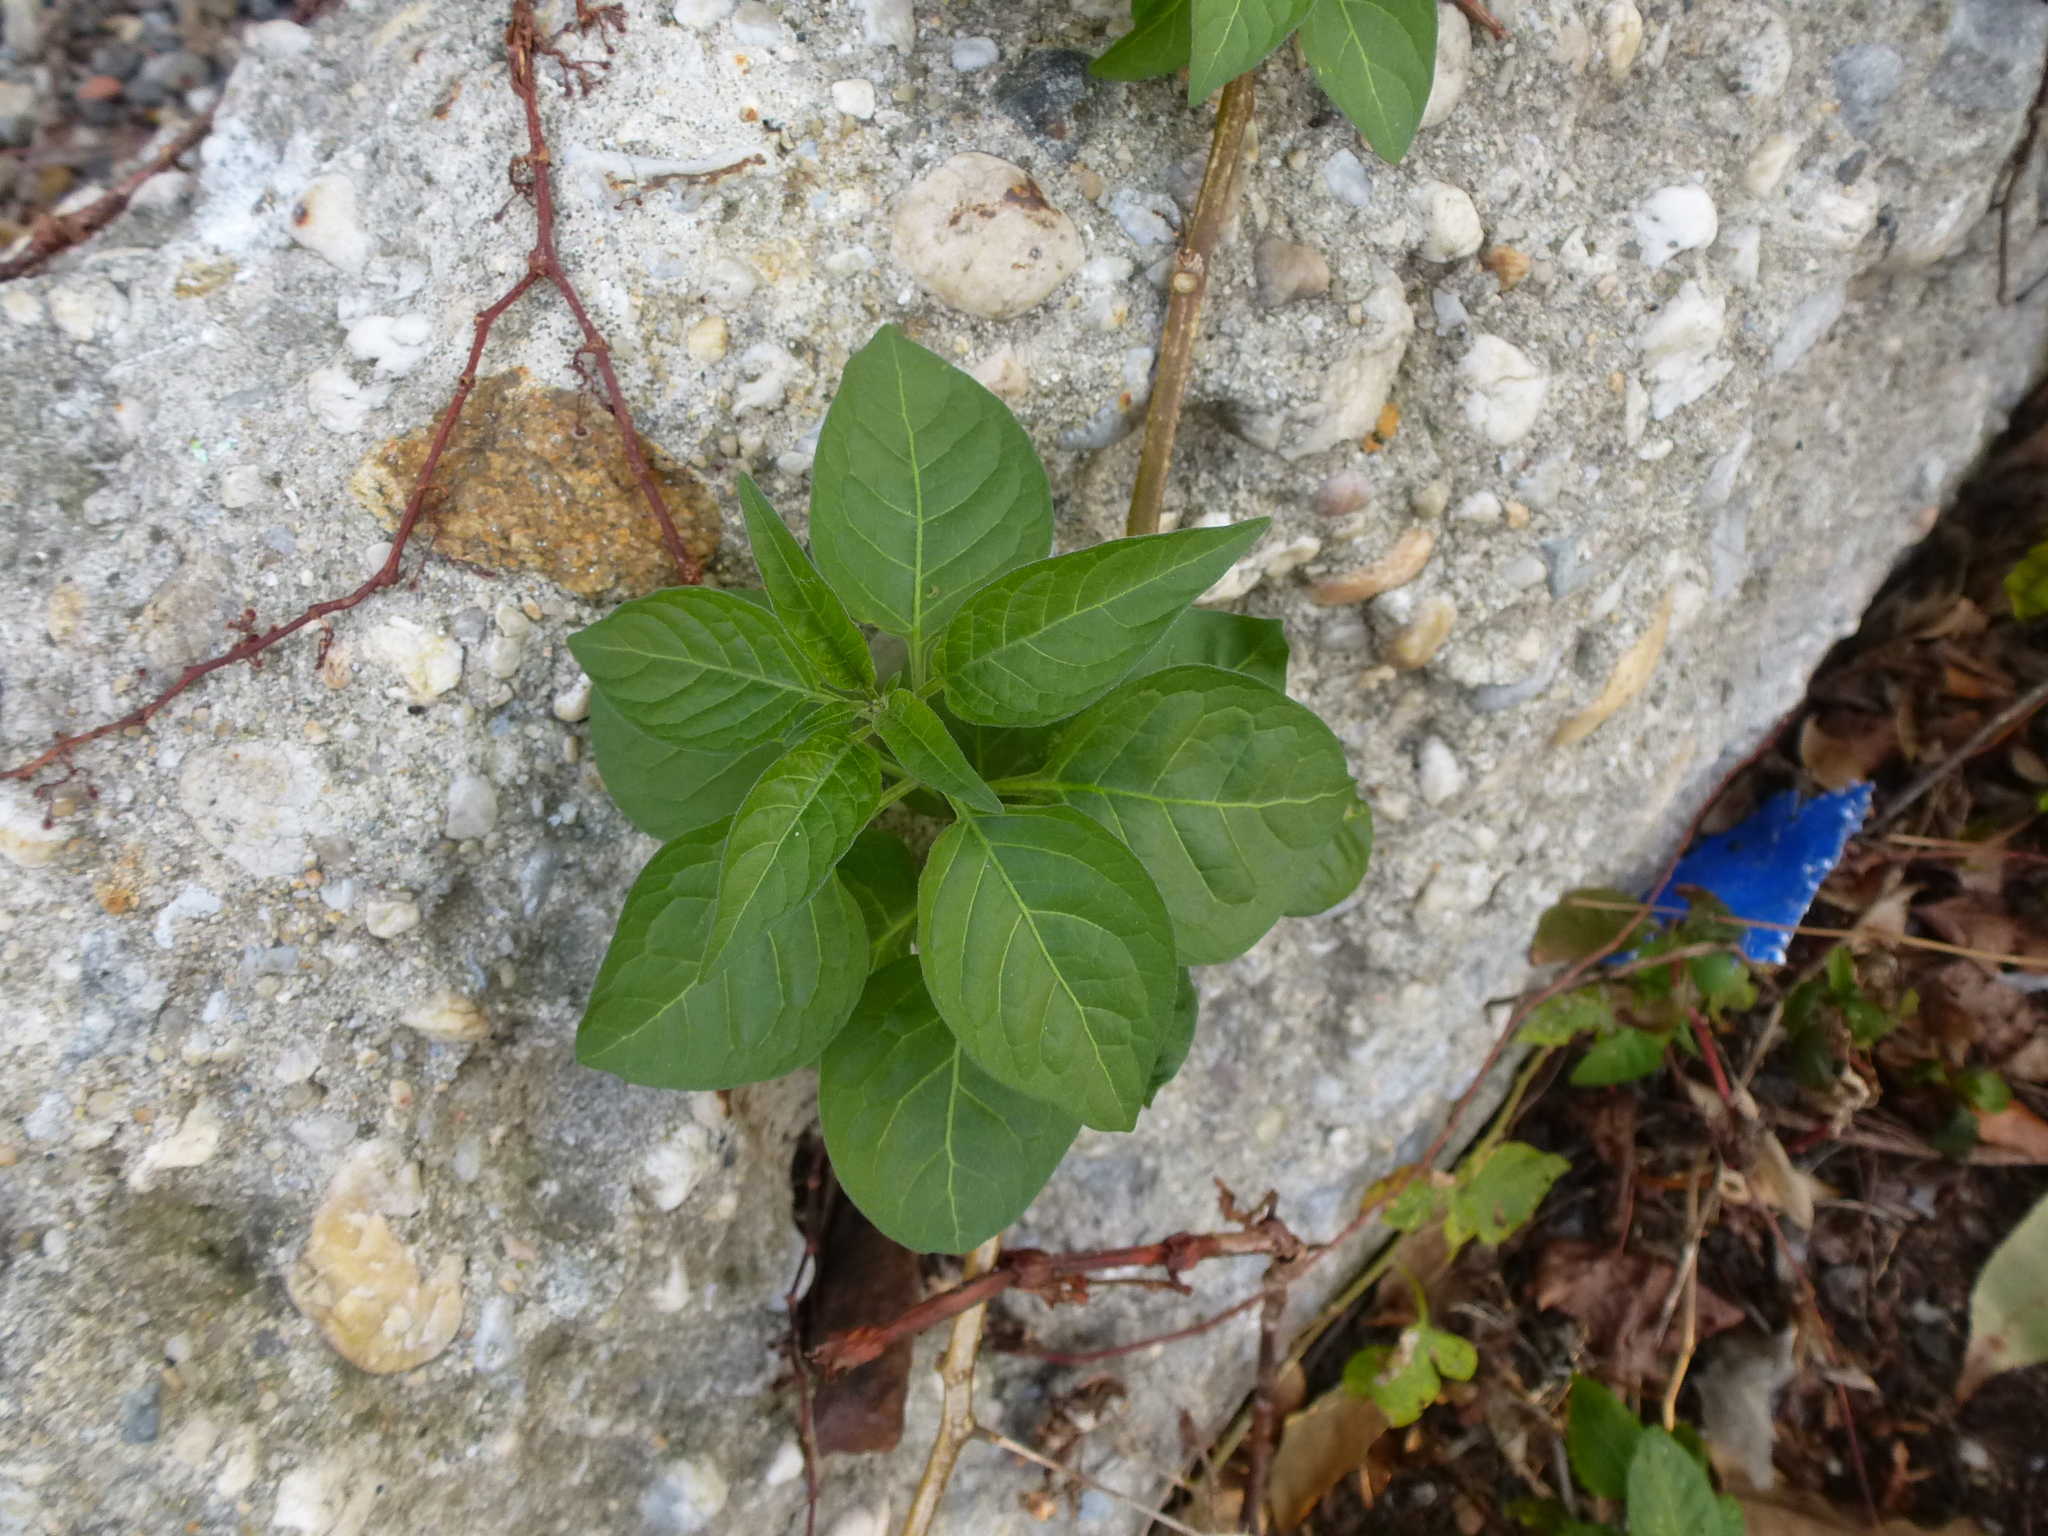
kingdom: Plantae
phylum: Tracheophyta
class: Magnoliopsida
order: Solanales
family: Solanaceae
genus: Solanum
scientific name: Solanum dulcamara
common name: Climbing nightshade
